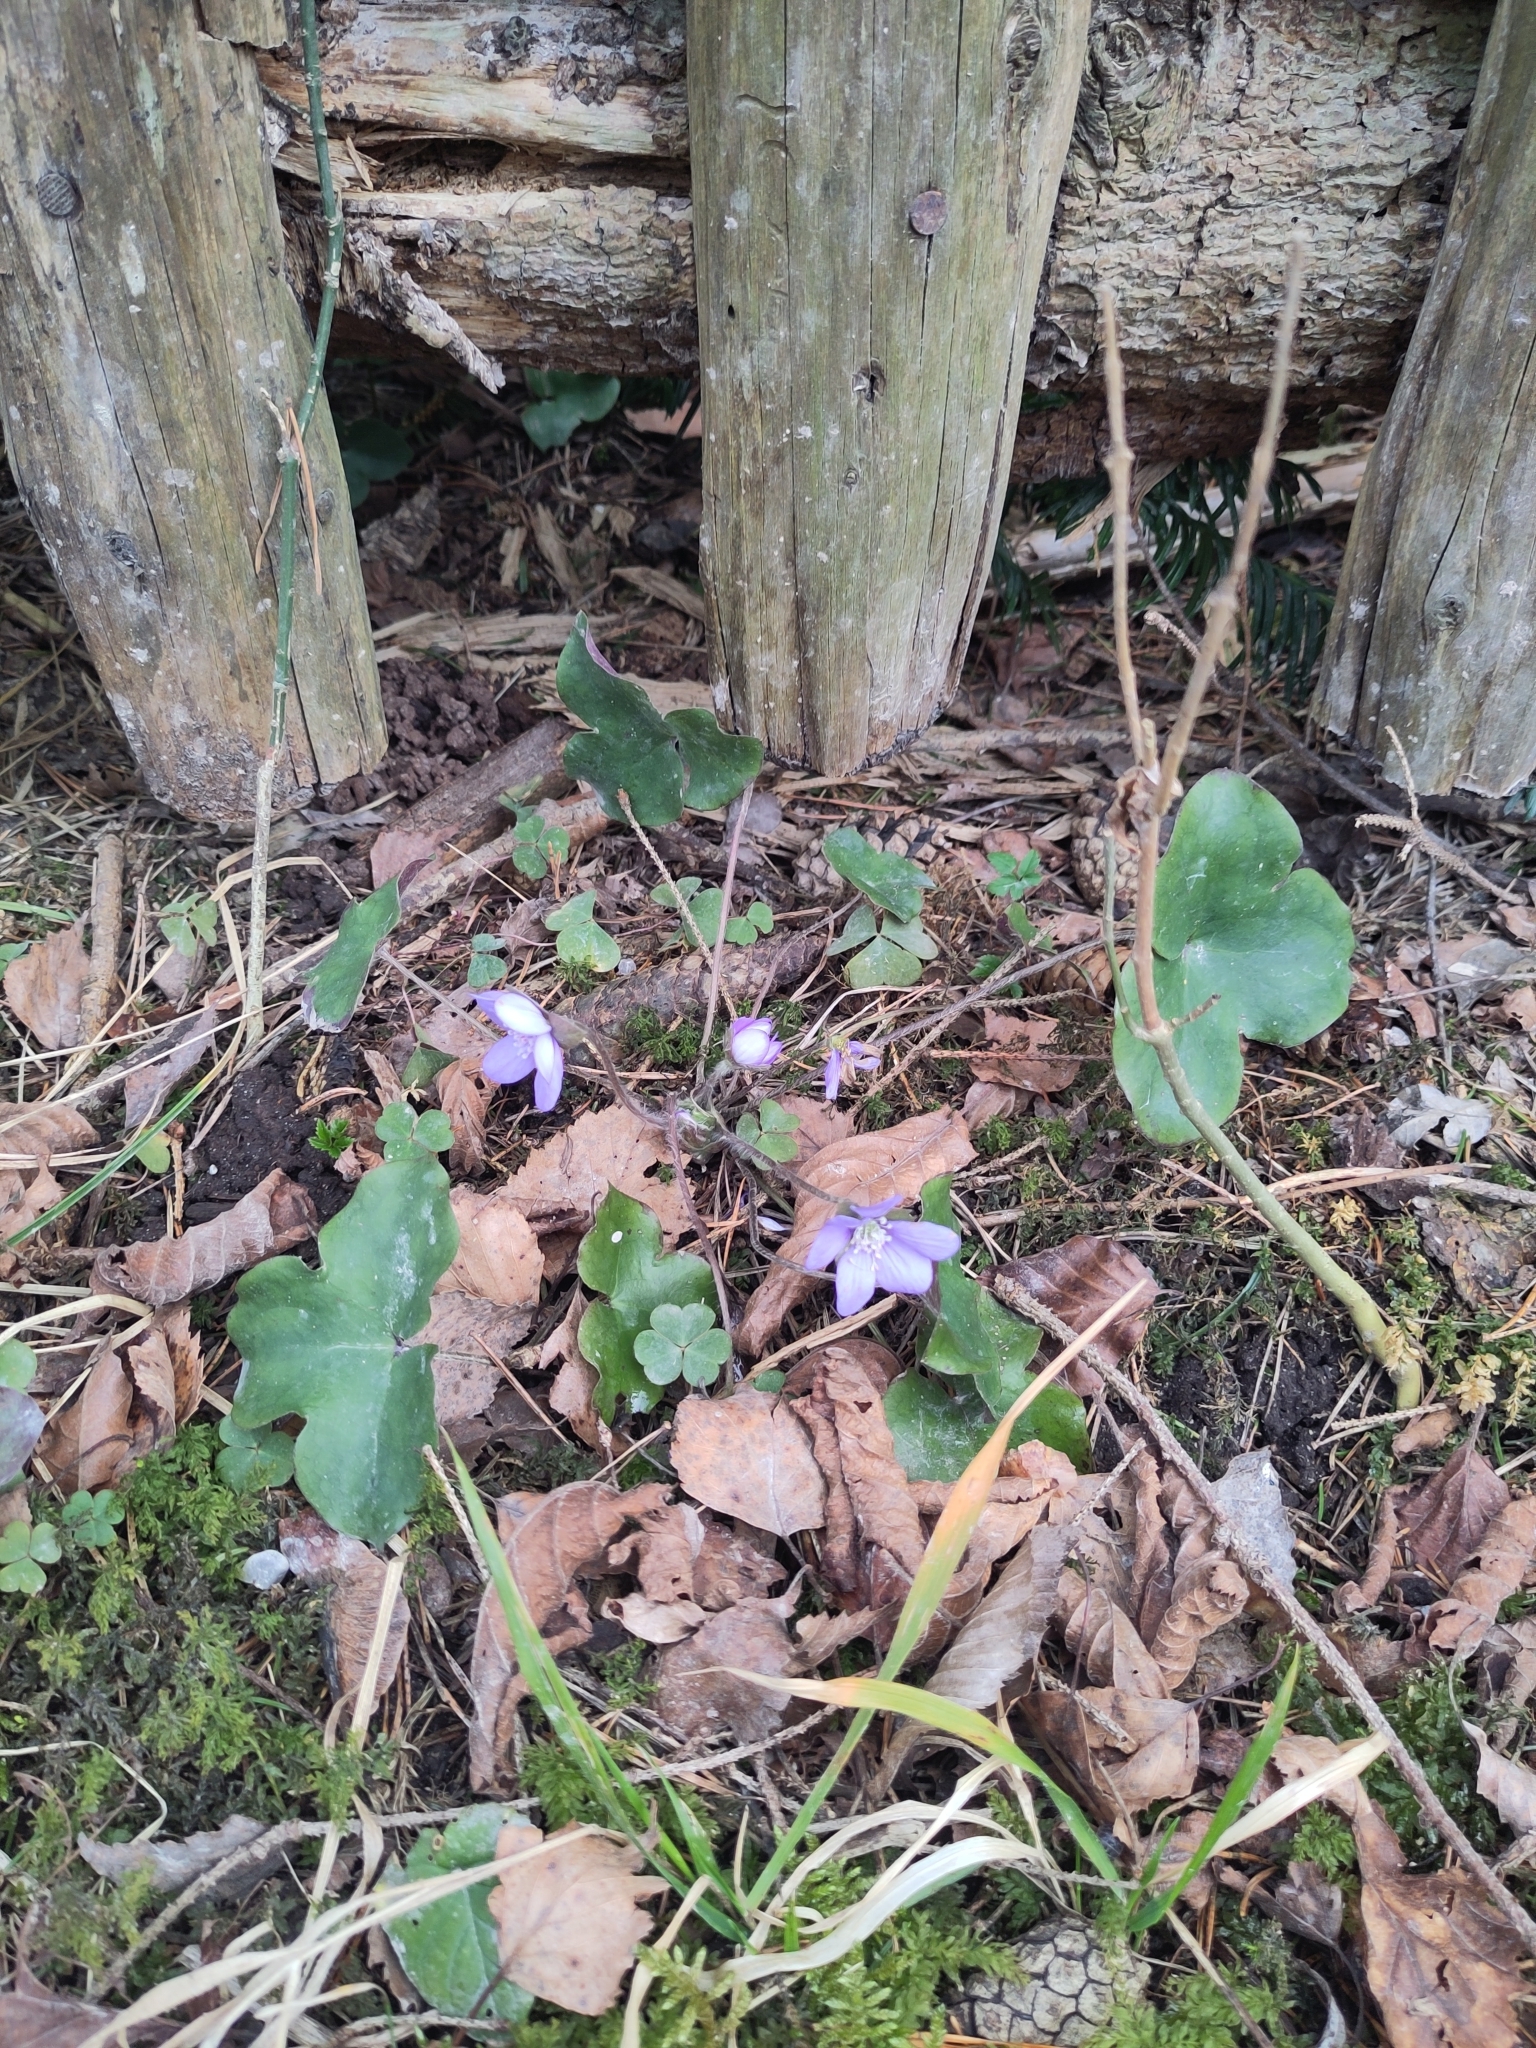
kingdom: Plantae
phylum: Tracheophyta
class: Magnoliopsida
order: Ranunculales
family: Ranunculaceae
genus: Hepatica
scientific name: Hepatica nobilis
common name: Liverleaf
